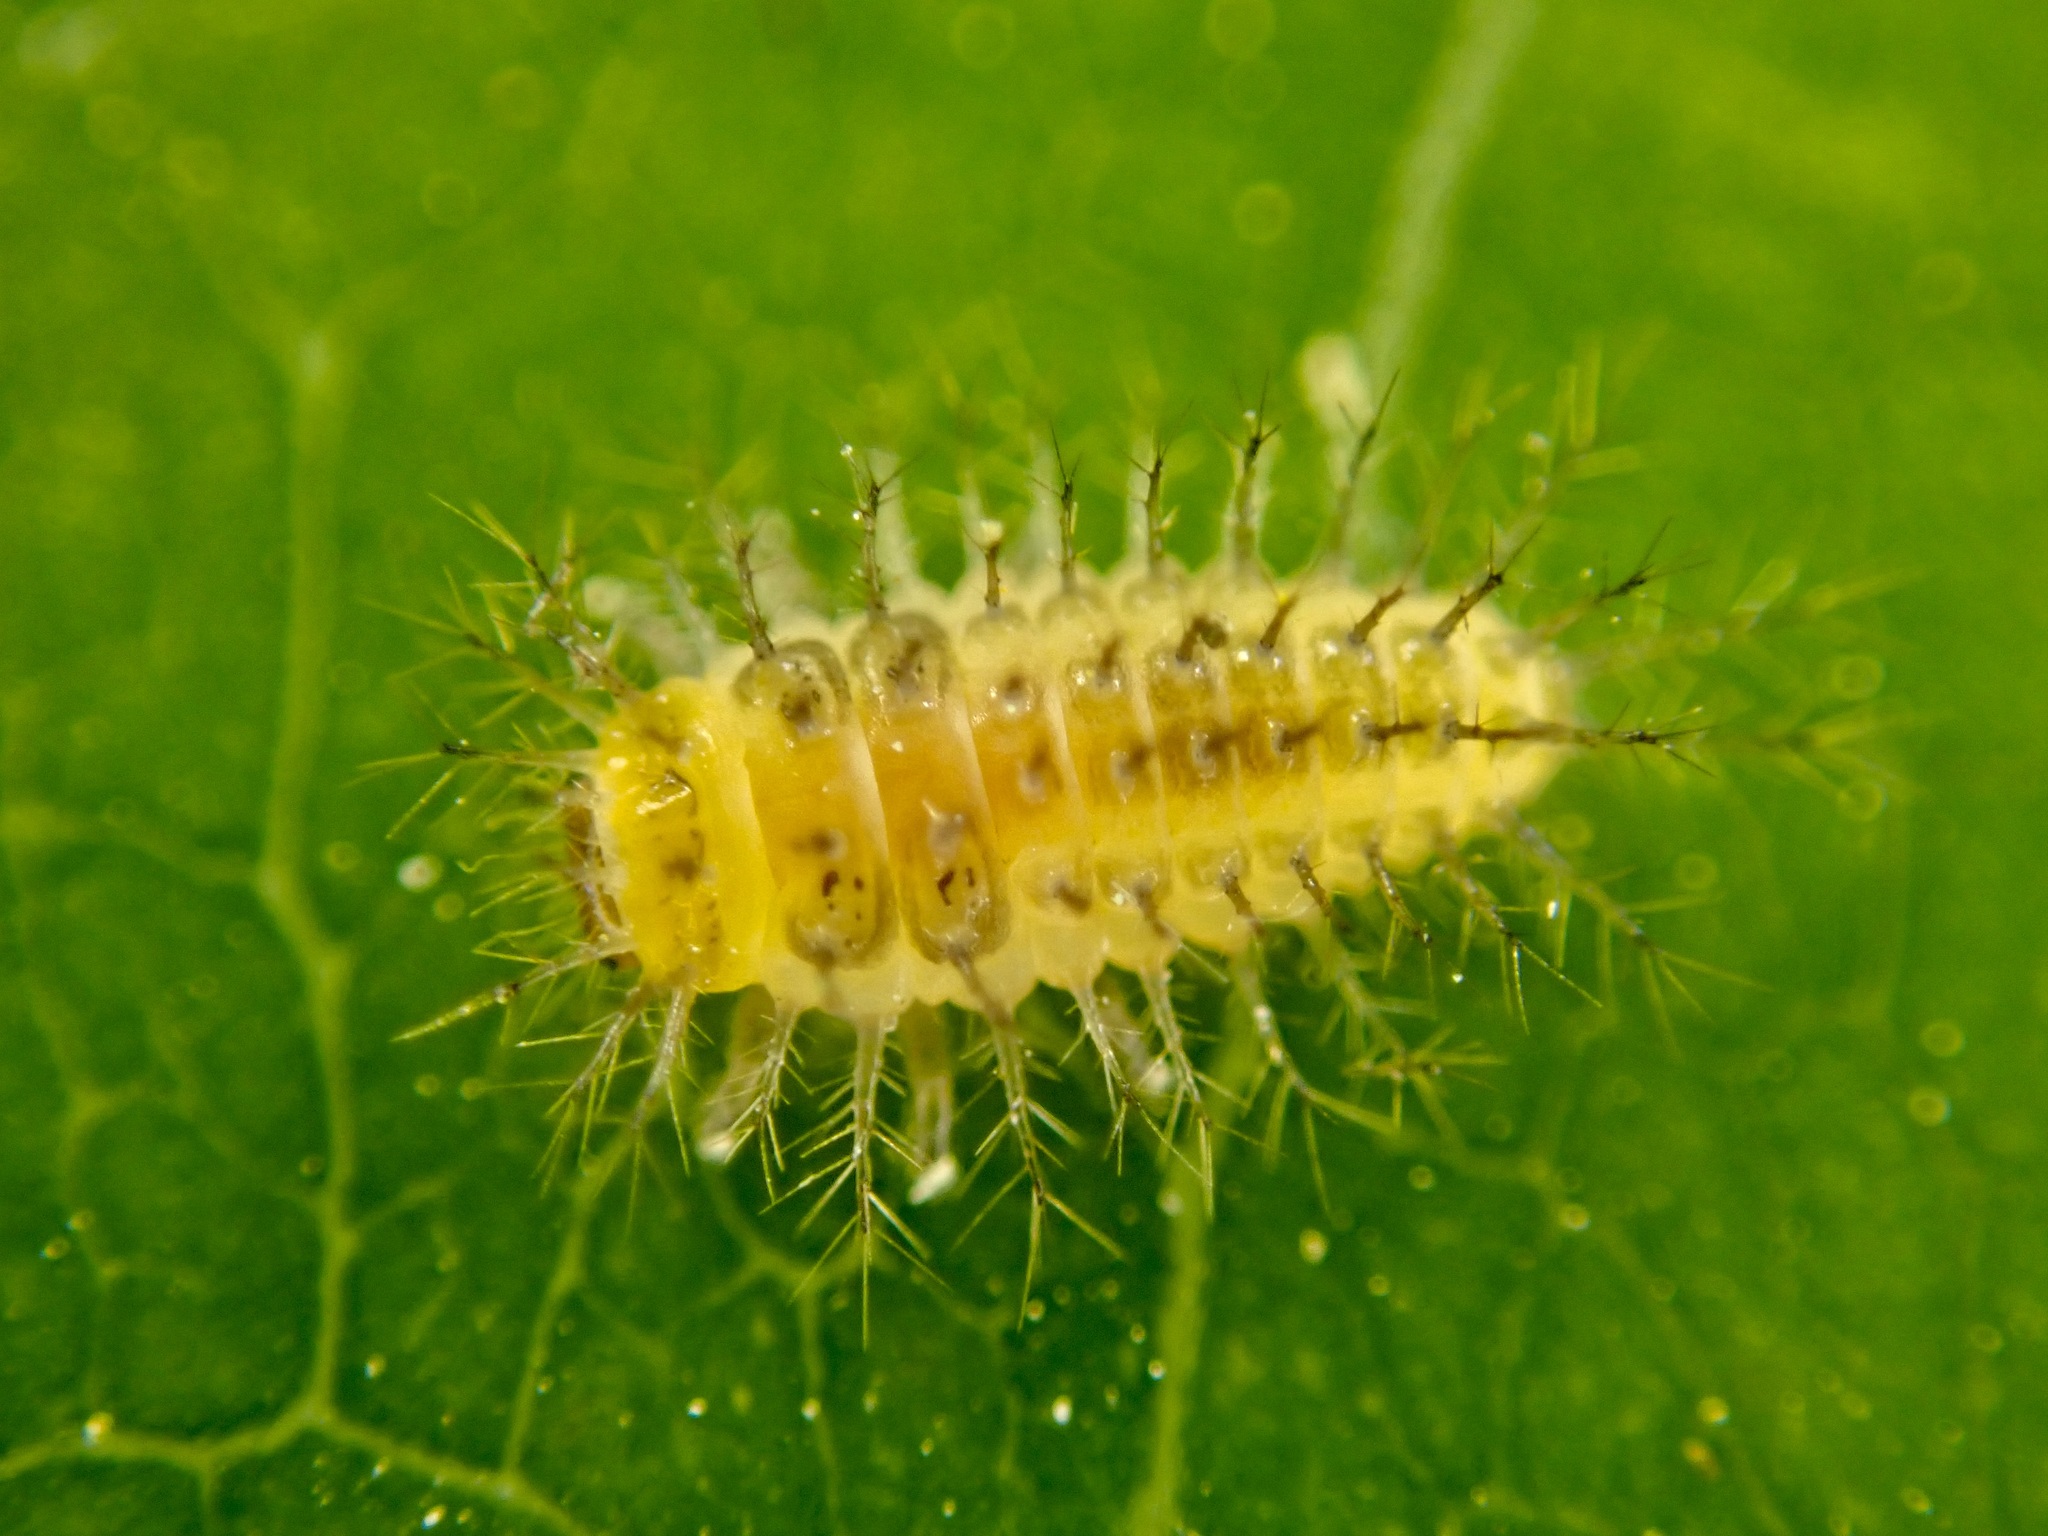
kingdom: Animalia
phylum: Arthropoda
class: Insecta
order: Coleoptera
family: Coccinellidae
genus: Halmus
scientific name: Halmus chalybeus
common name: Steel blue ladybird beetle
